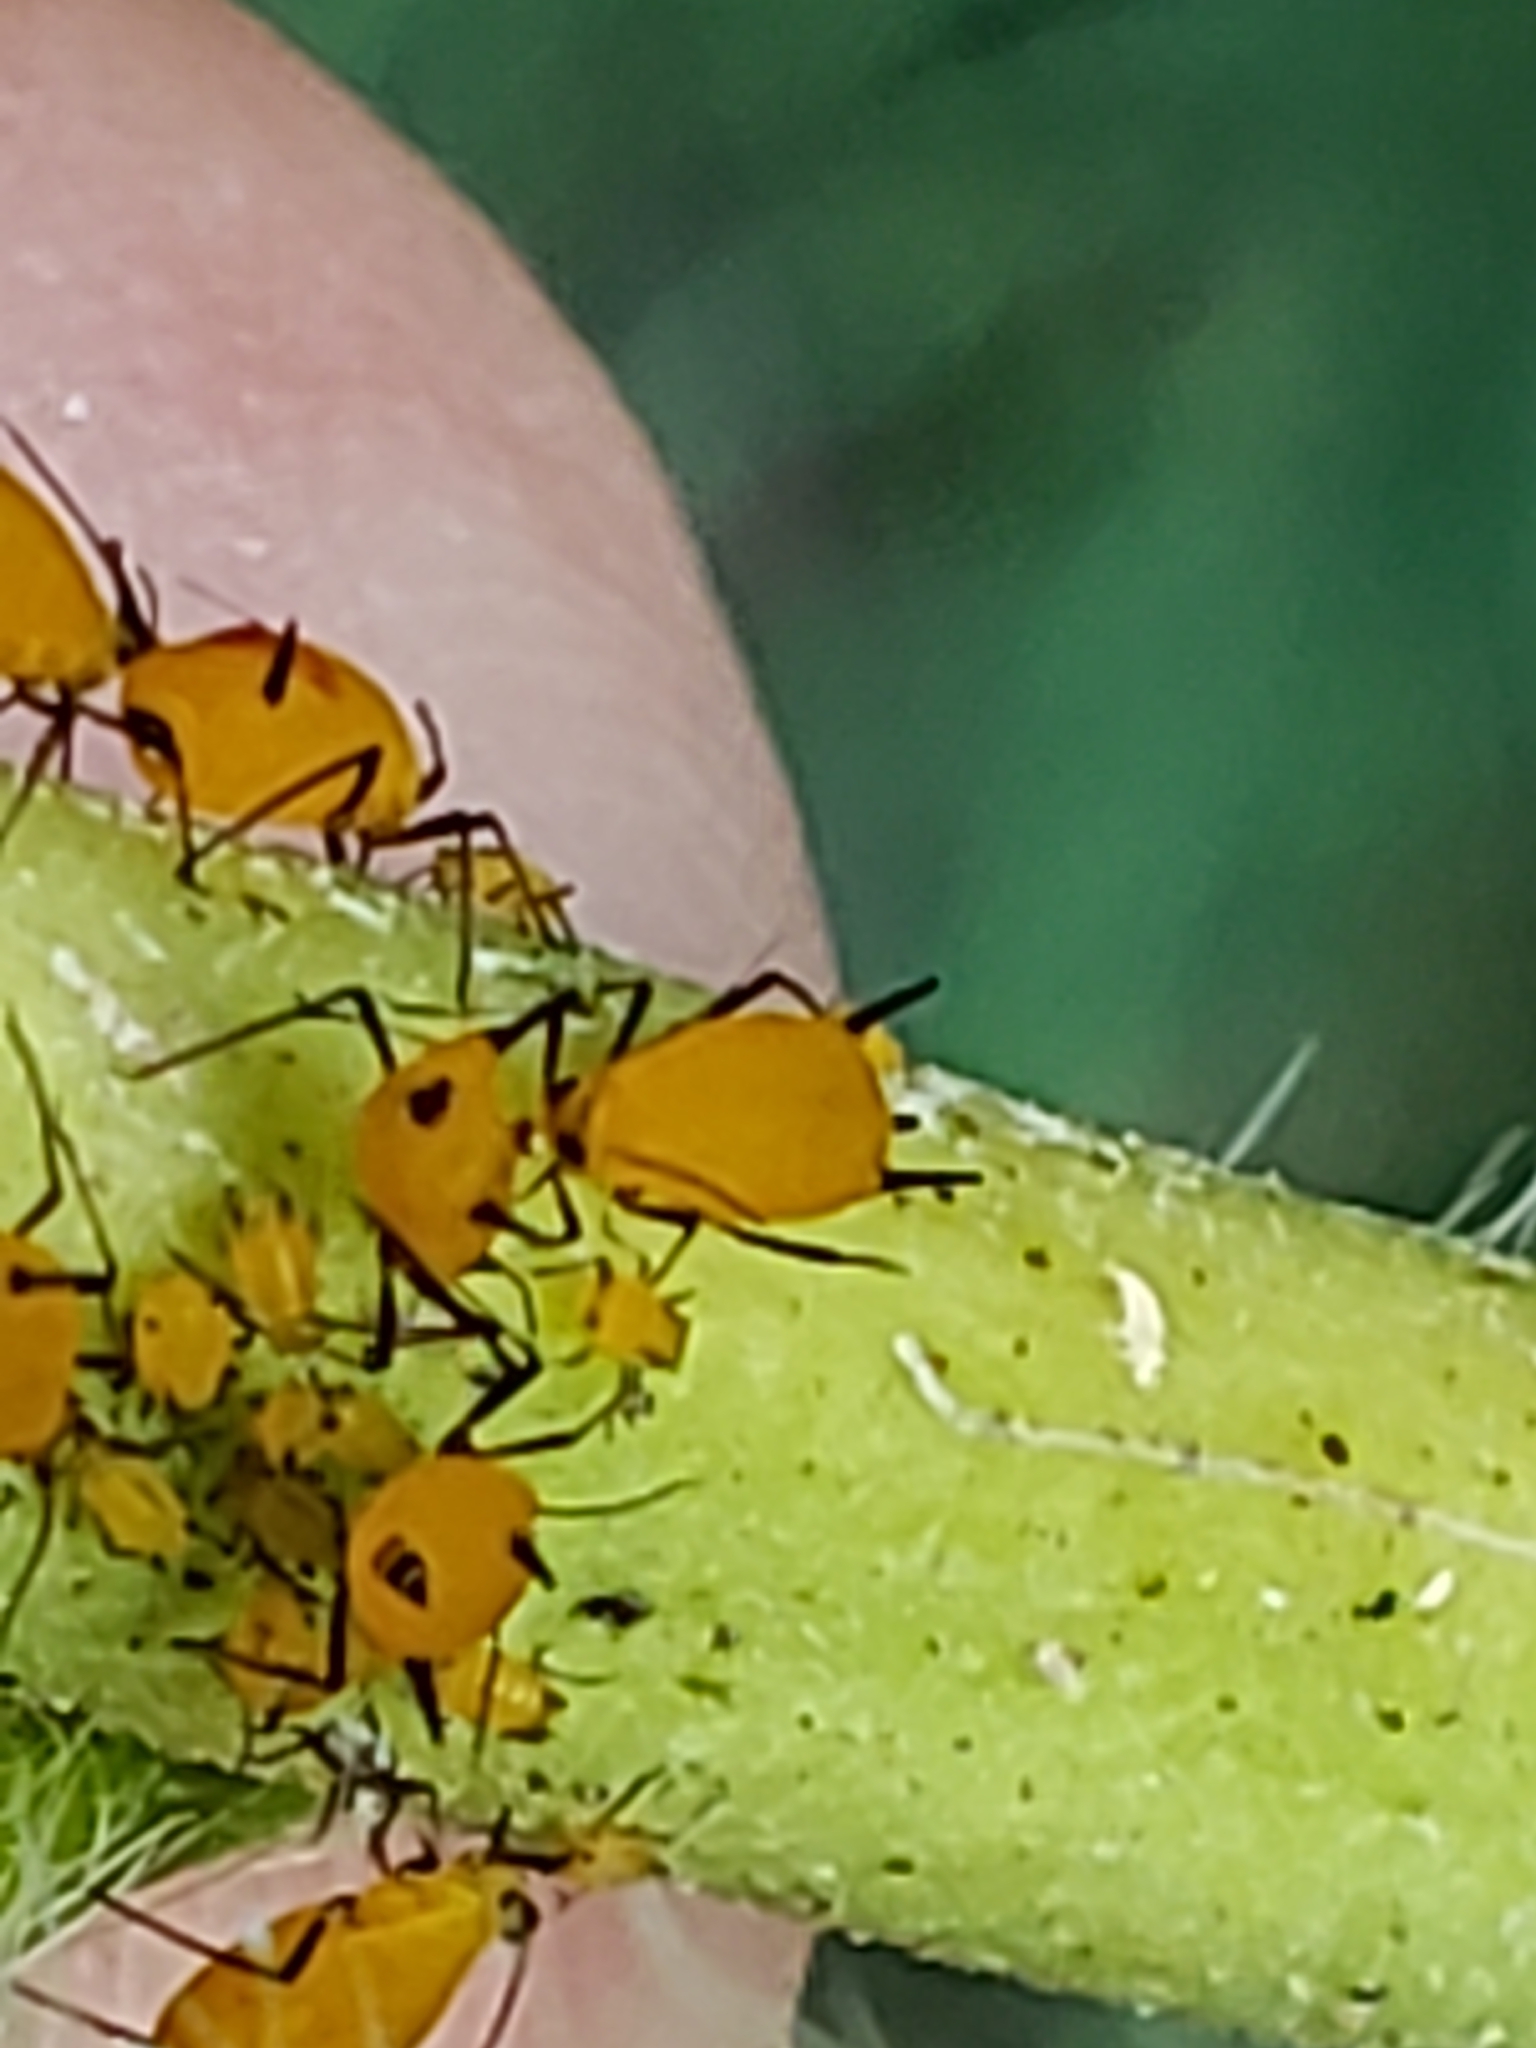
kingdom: Animalia
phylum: Arthropoda
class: Insecta
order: Hemiptera
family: Aphididae
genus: Aphis
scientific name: Aphis nerii
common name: Oleander aphid
